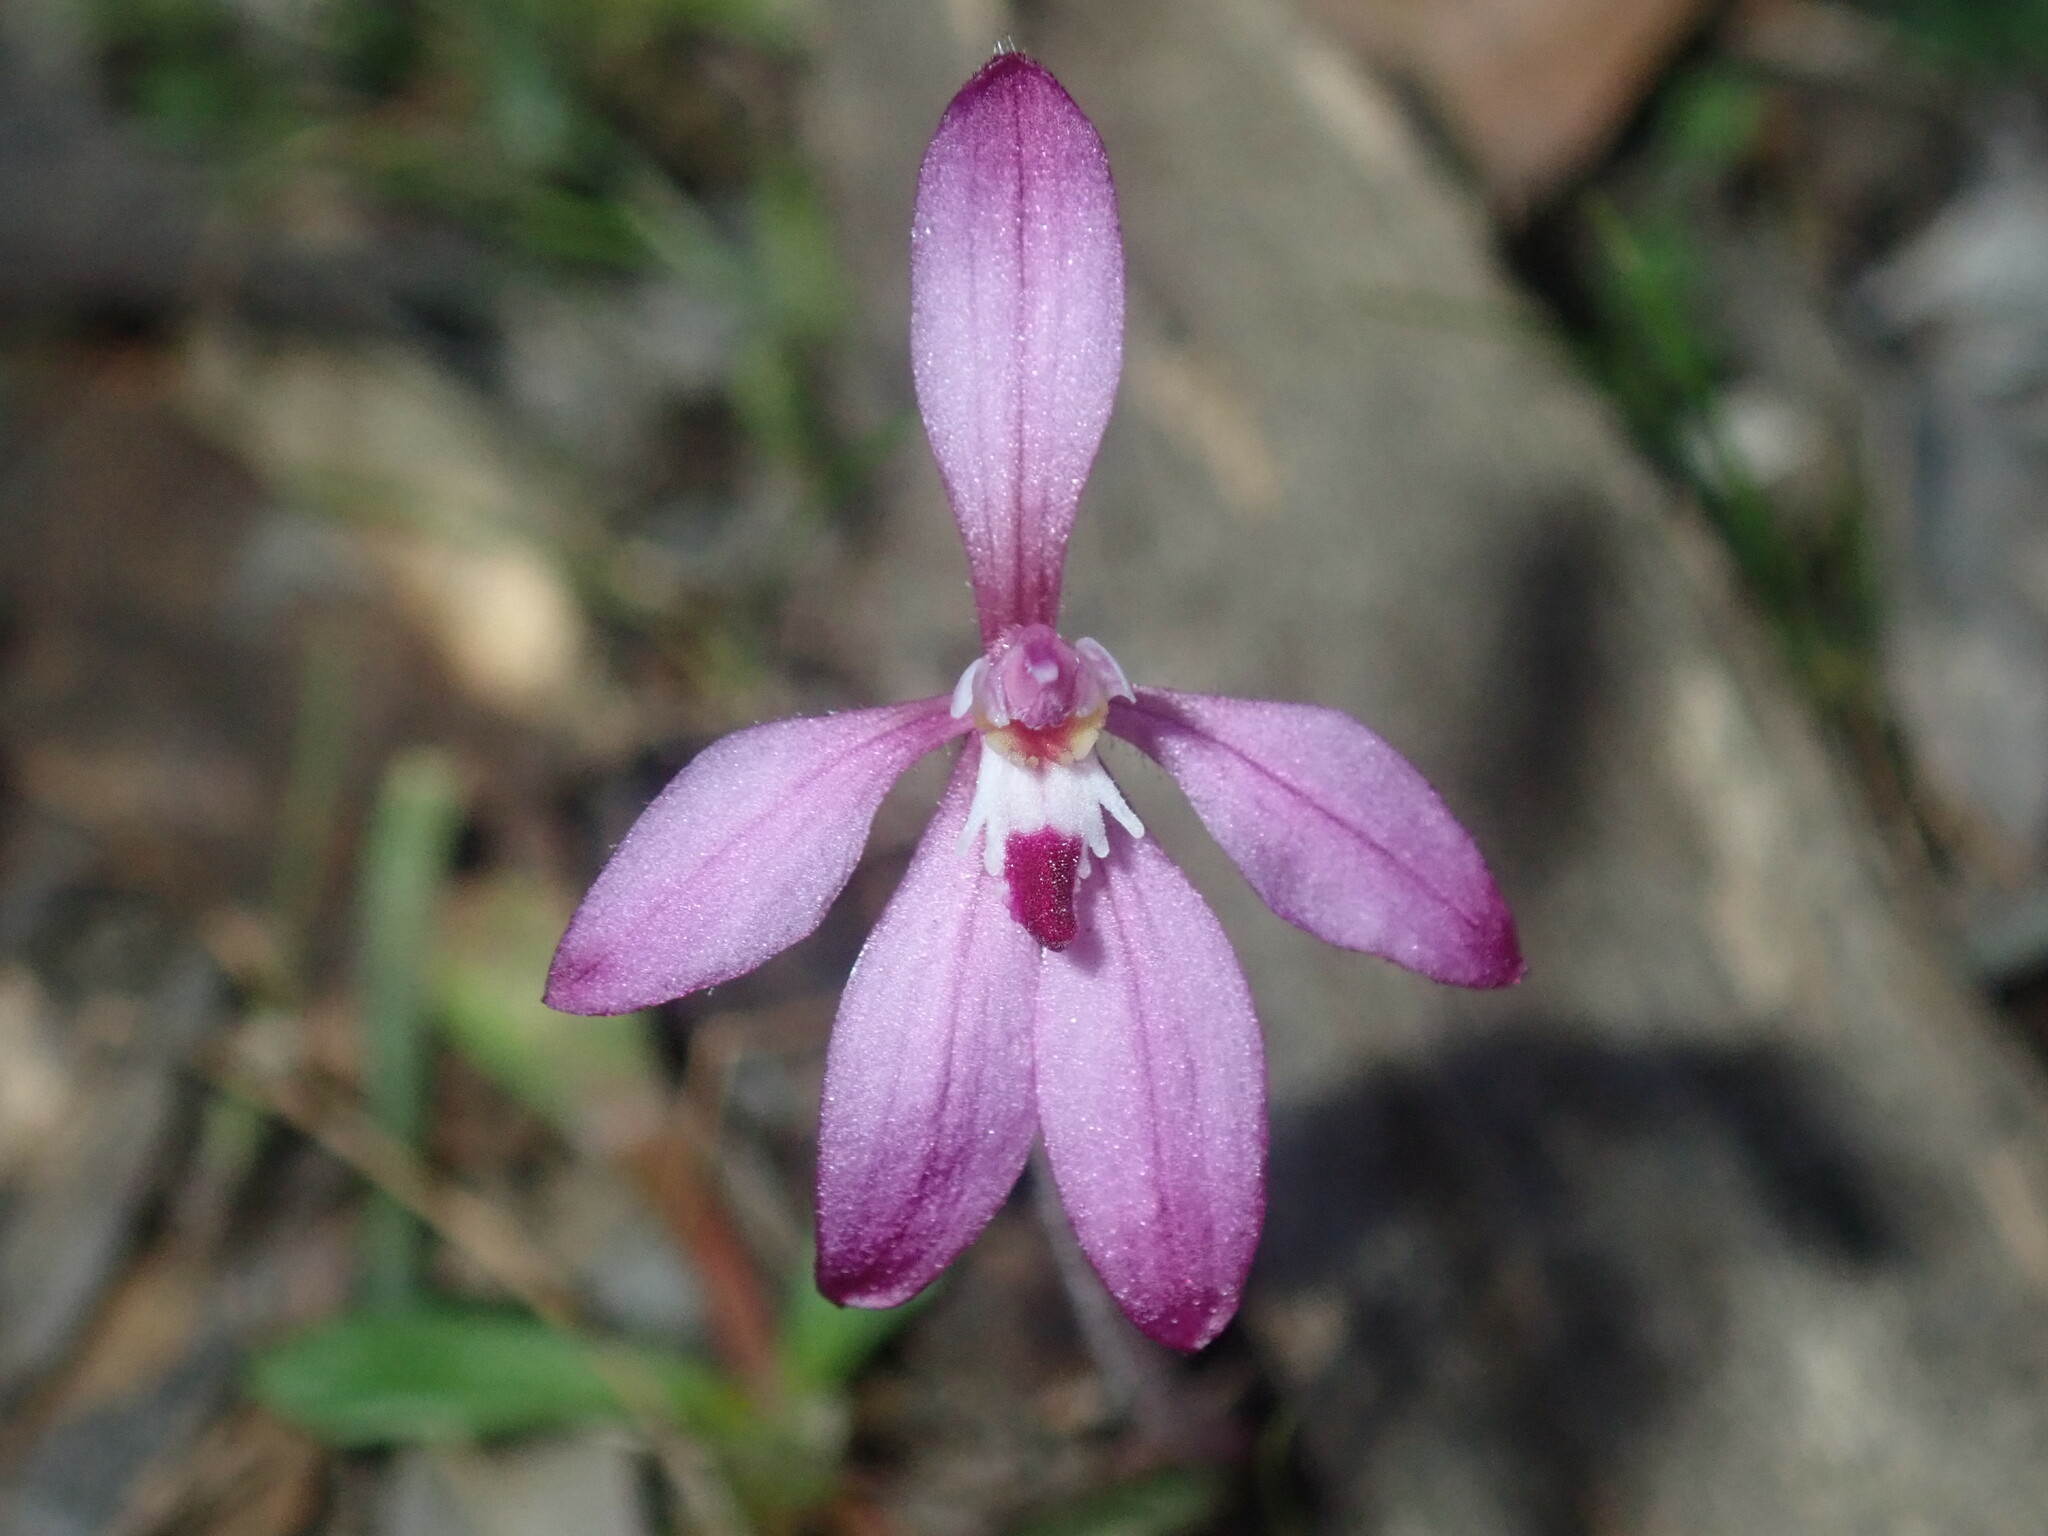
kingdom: Plantae
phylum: Tracheophyta
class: Liliopsida
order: Asparagales
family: Orchidaceae
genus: Caladenia
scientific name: Caladenia reptans
